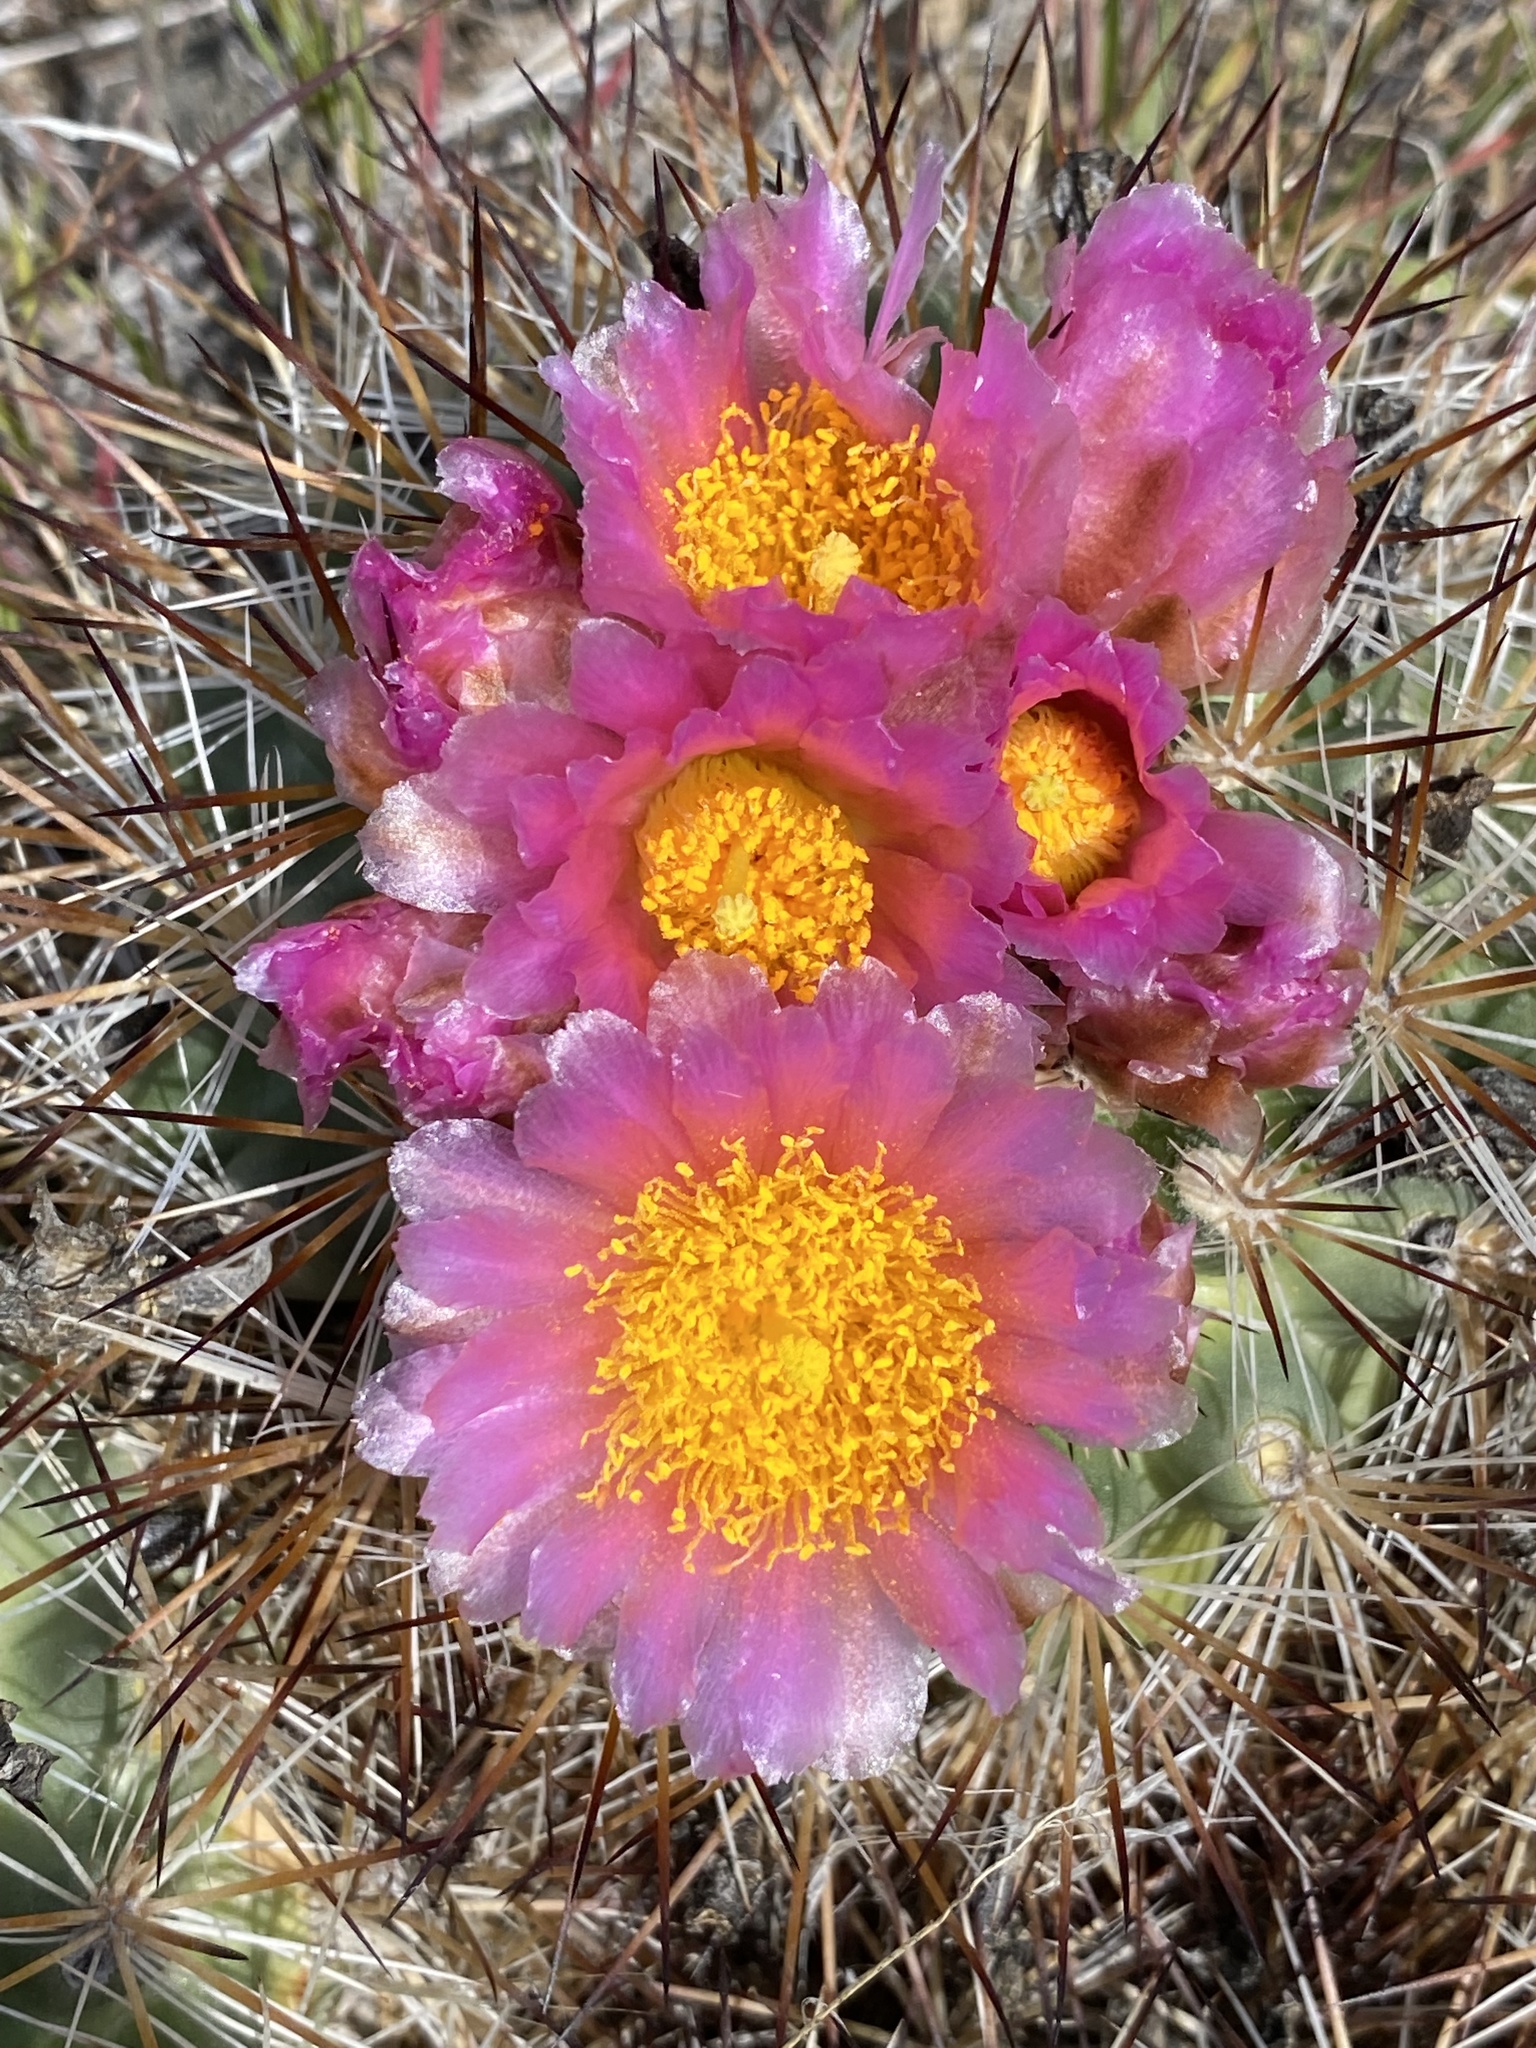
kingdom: Plantae
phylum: Tracheophyta
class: Magnoliopsida
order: Caryophyllales
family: Cactaceae
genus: Pediocactus
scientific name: Pediocactus nigrispinus
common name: Simpson's hedgehog cactus
